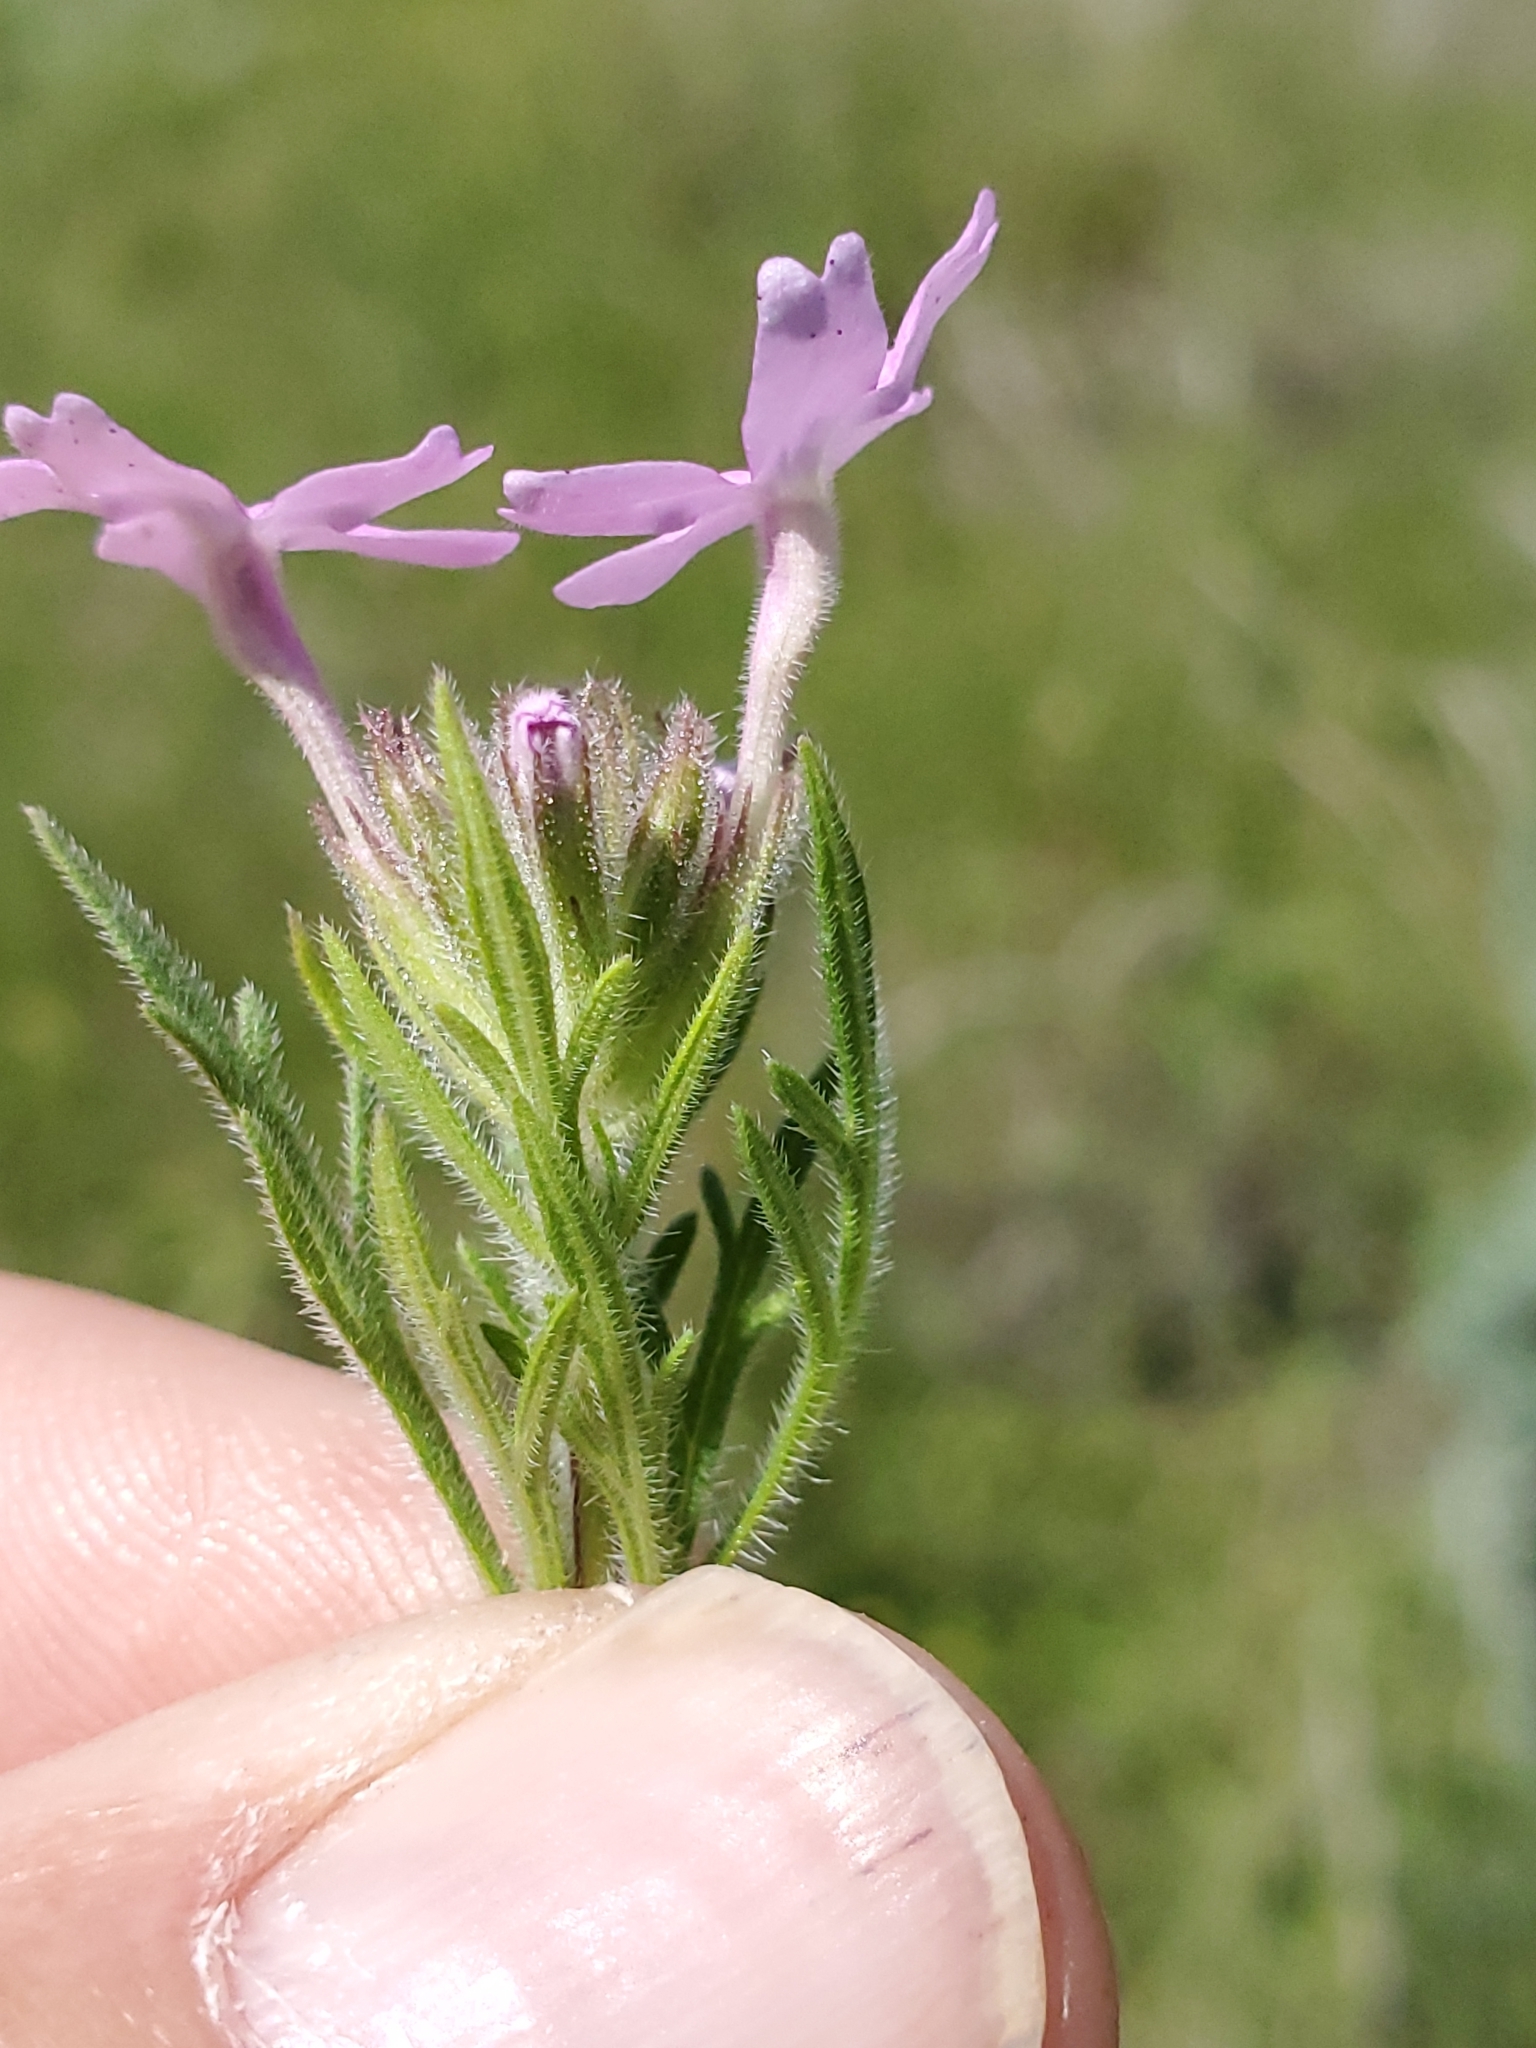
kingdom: Plantae
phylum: Tracheophyta
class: Magnoliopsida
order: Lamiales
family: Verbenaceae
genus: Verbena
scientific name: Verbena bipinnatifida
